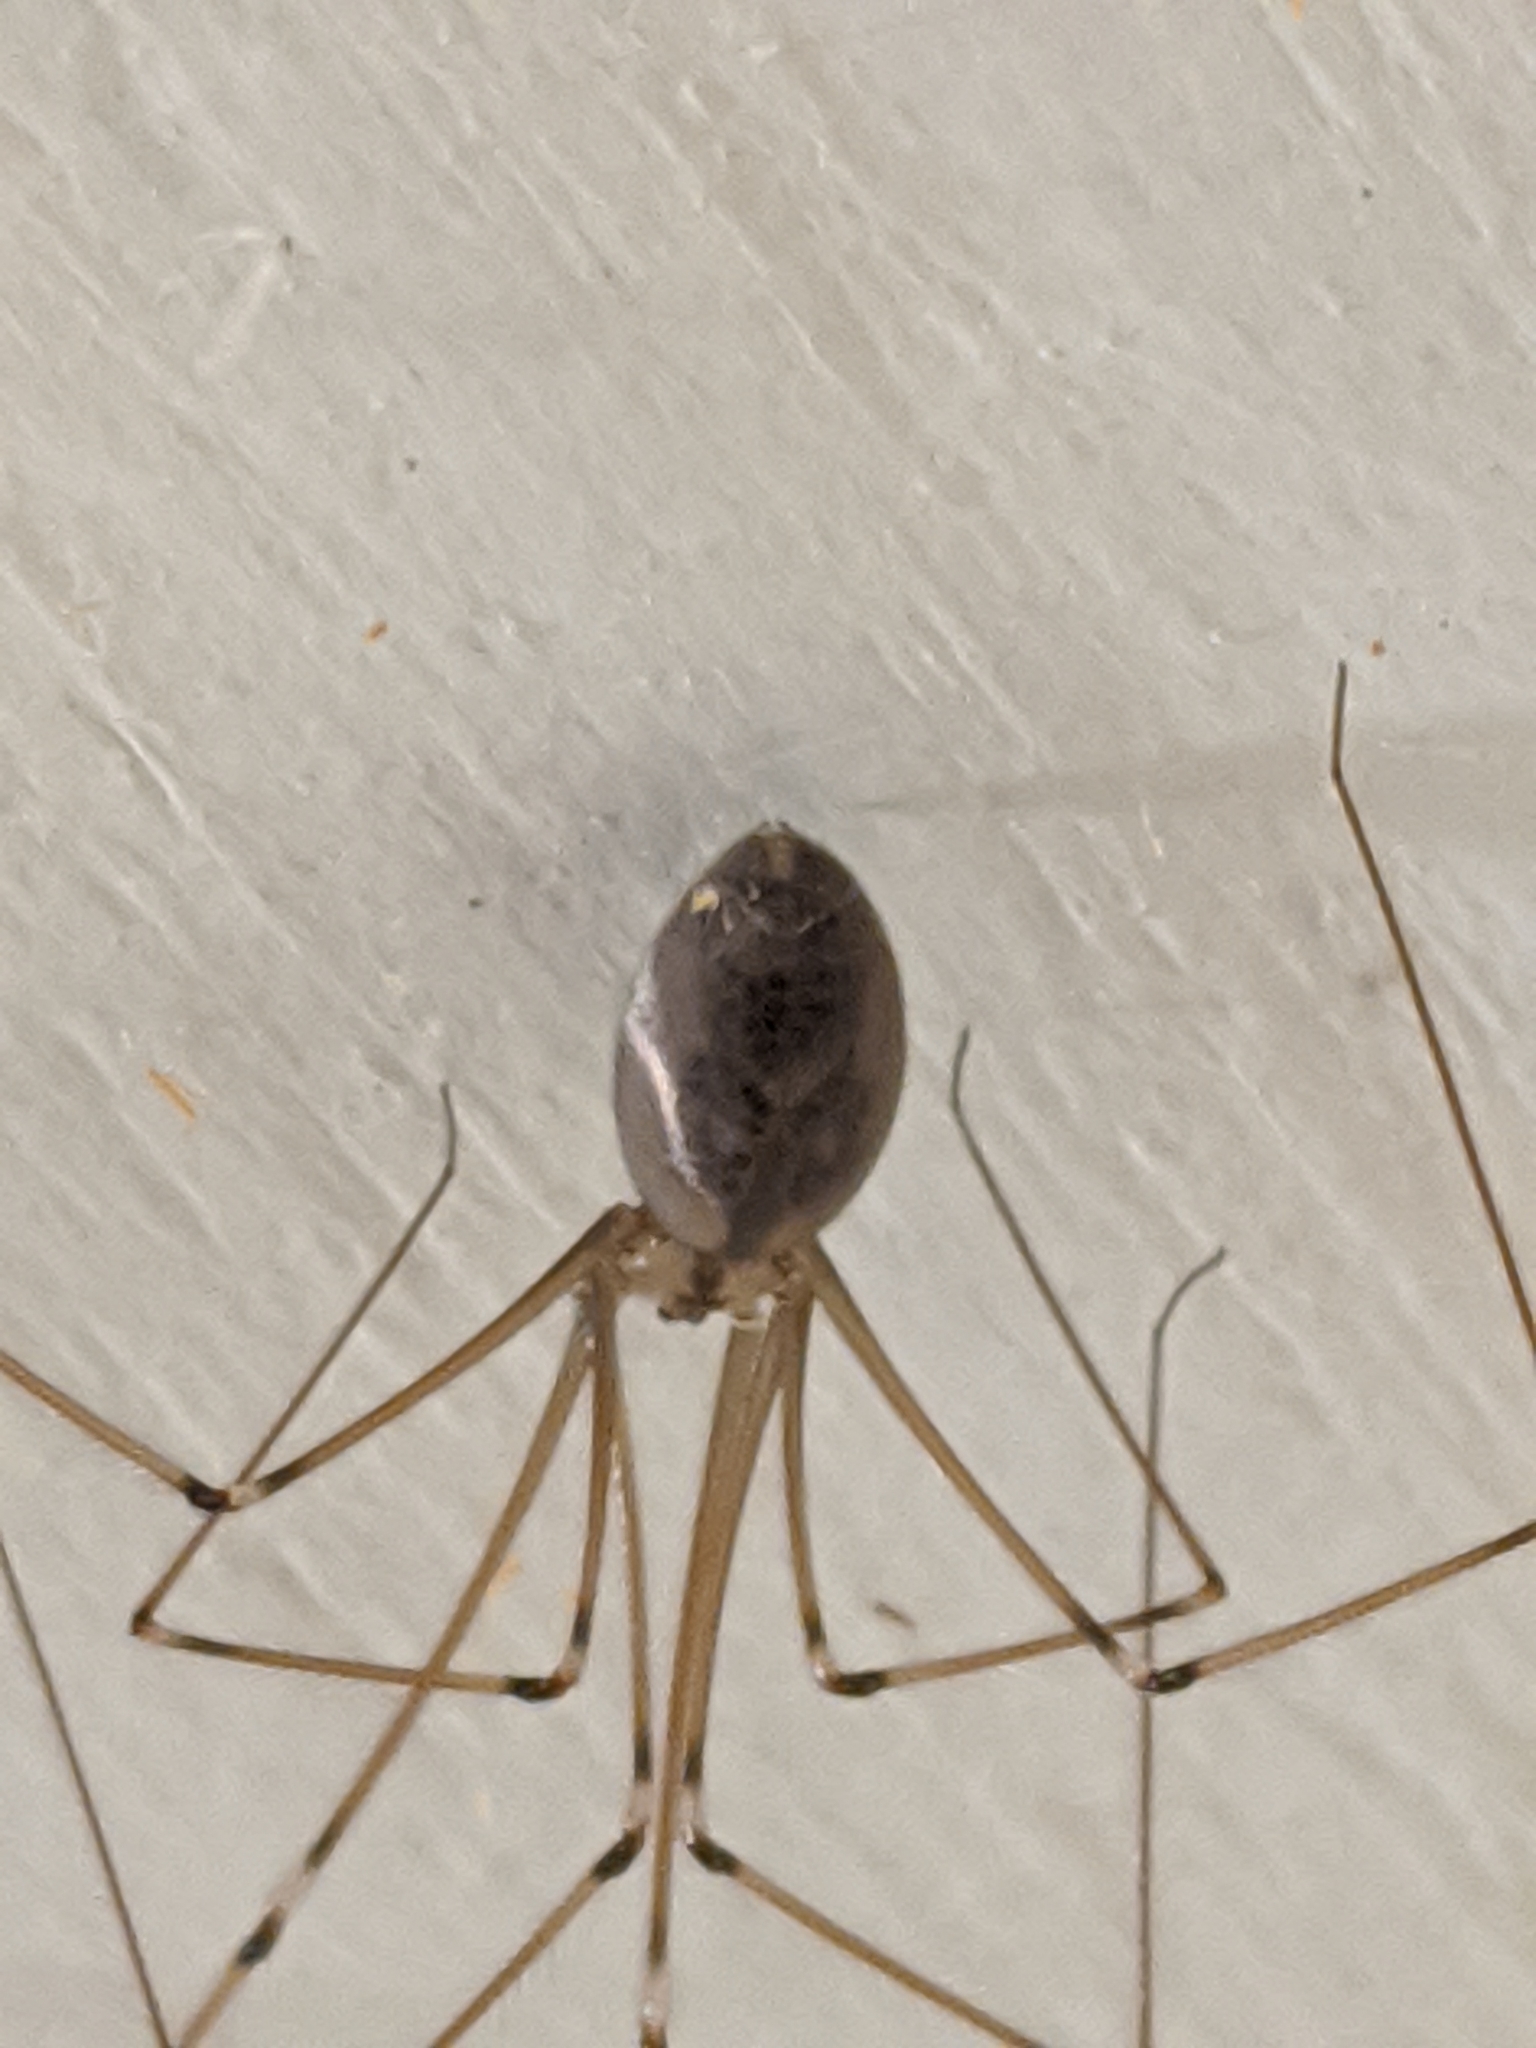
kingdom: Animalia
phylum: Arthropoda
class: Arachnida
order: Araneae
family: Pholcidae
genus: Pholcus
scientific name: Pholcus phalangioides
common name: Longbodied cellar spider
